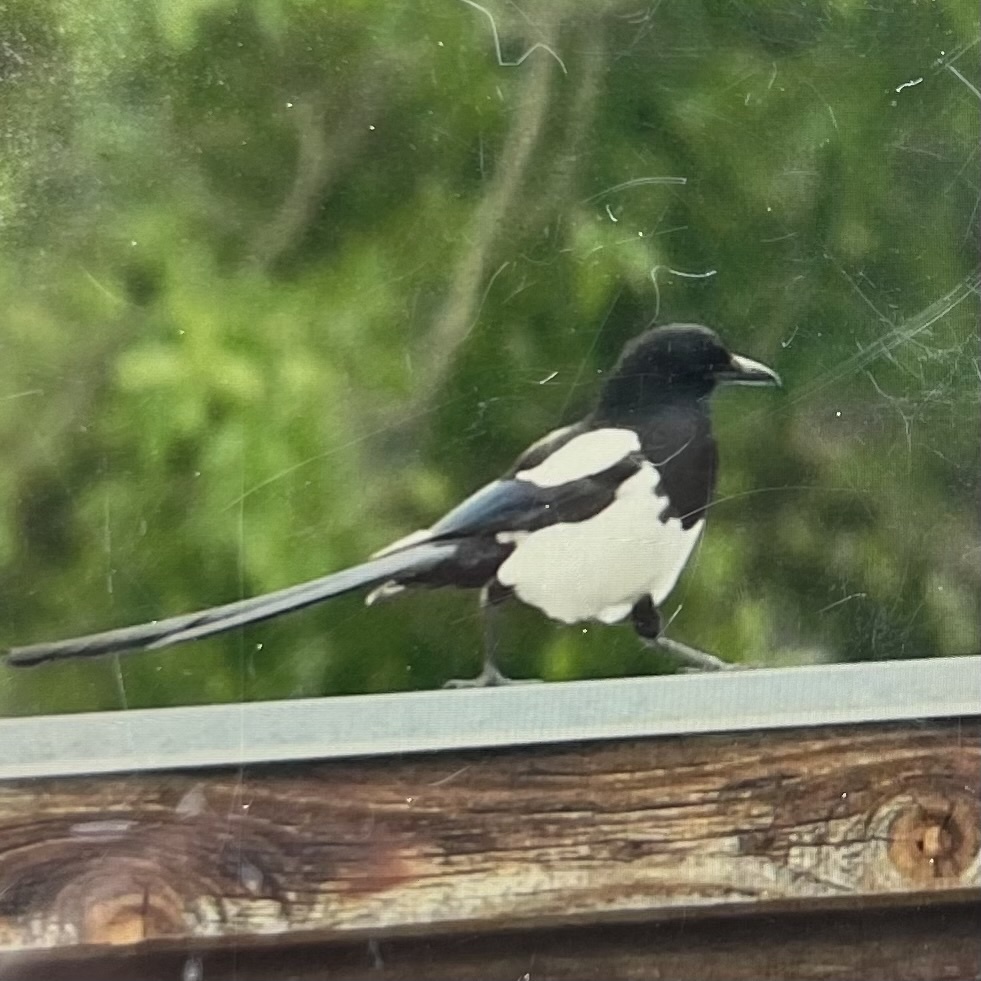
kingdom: Animalia
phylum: Chordata
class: Aves
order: Passeriformes
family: Corvidae
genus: Pica
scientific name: Pica hudsonia
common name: Black-billed magpie
